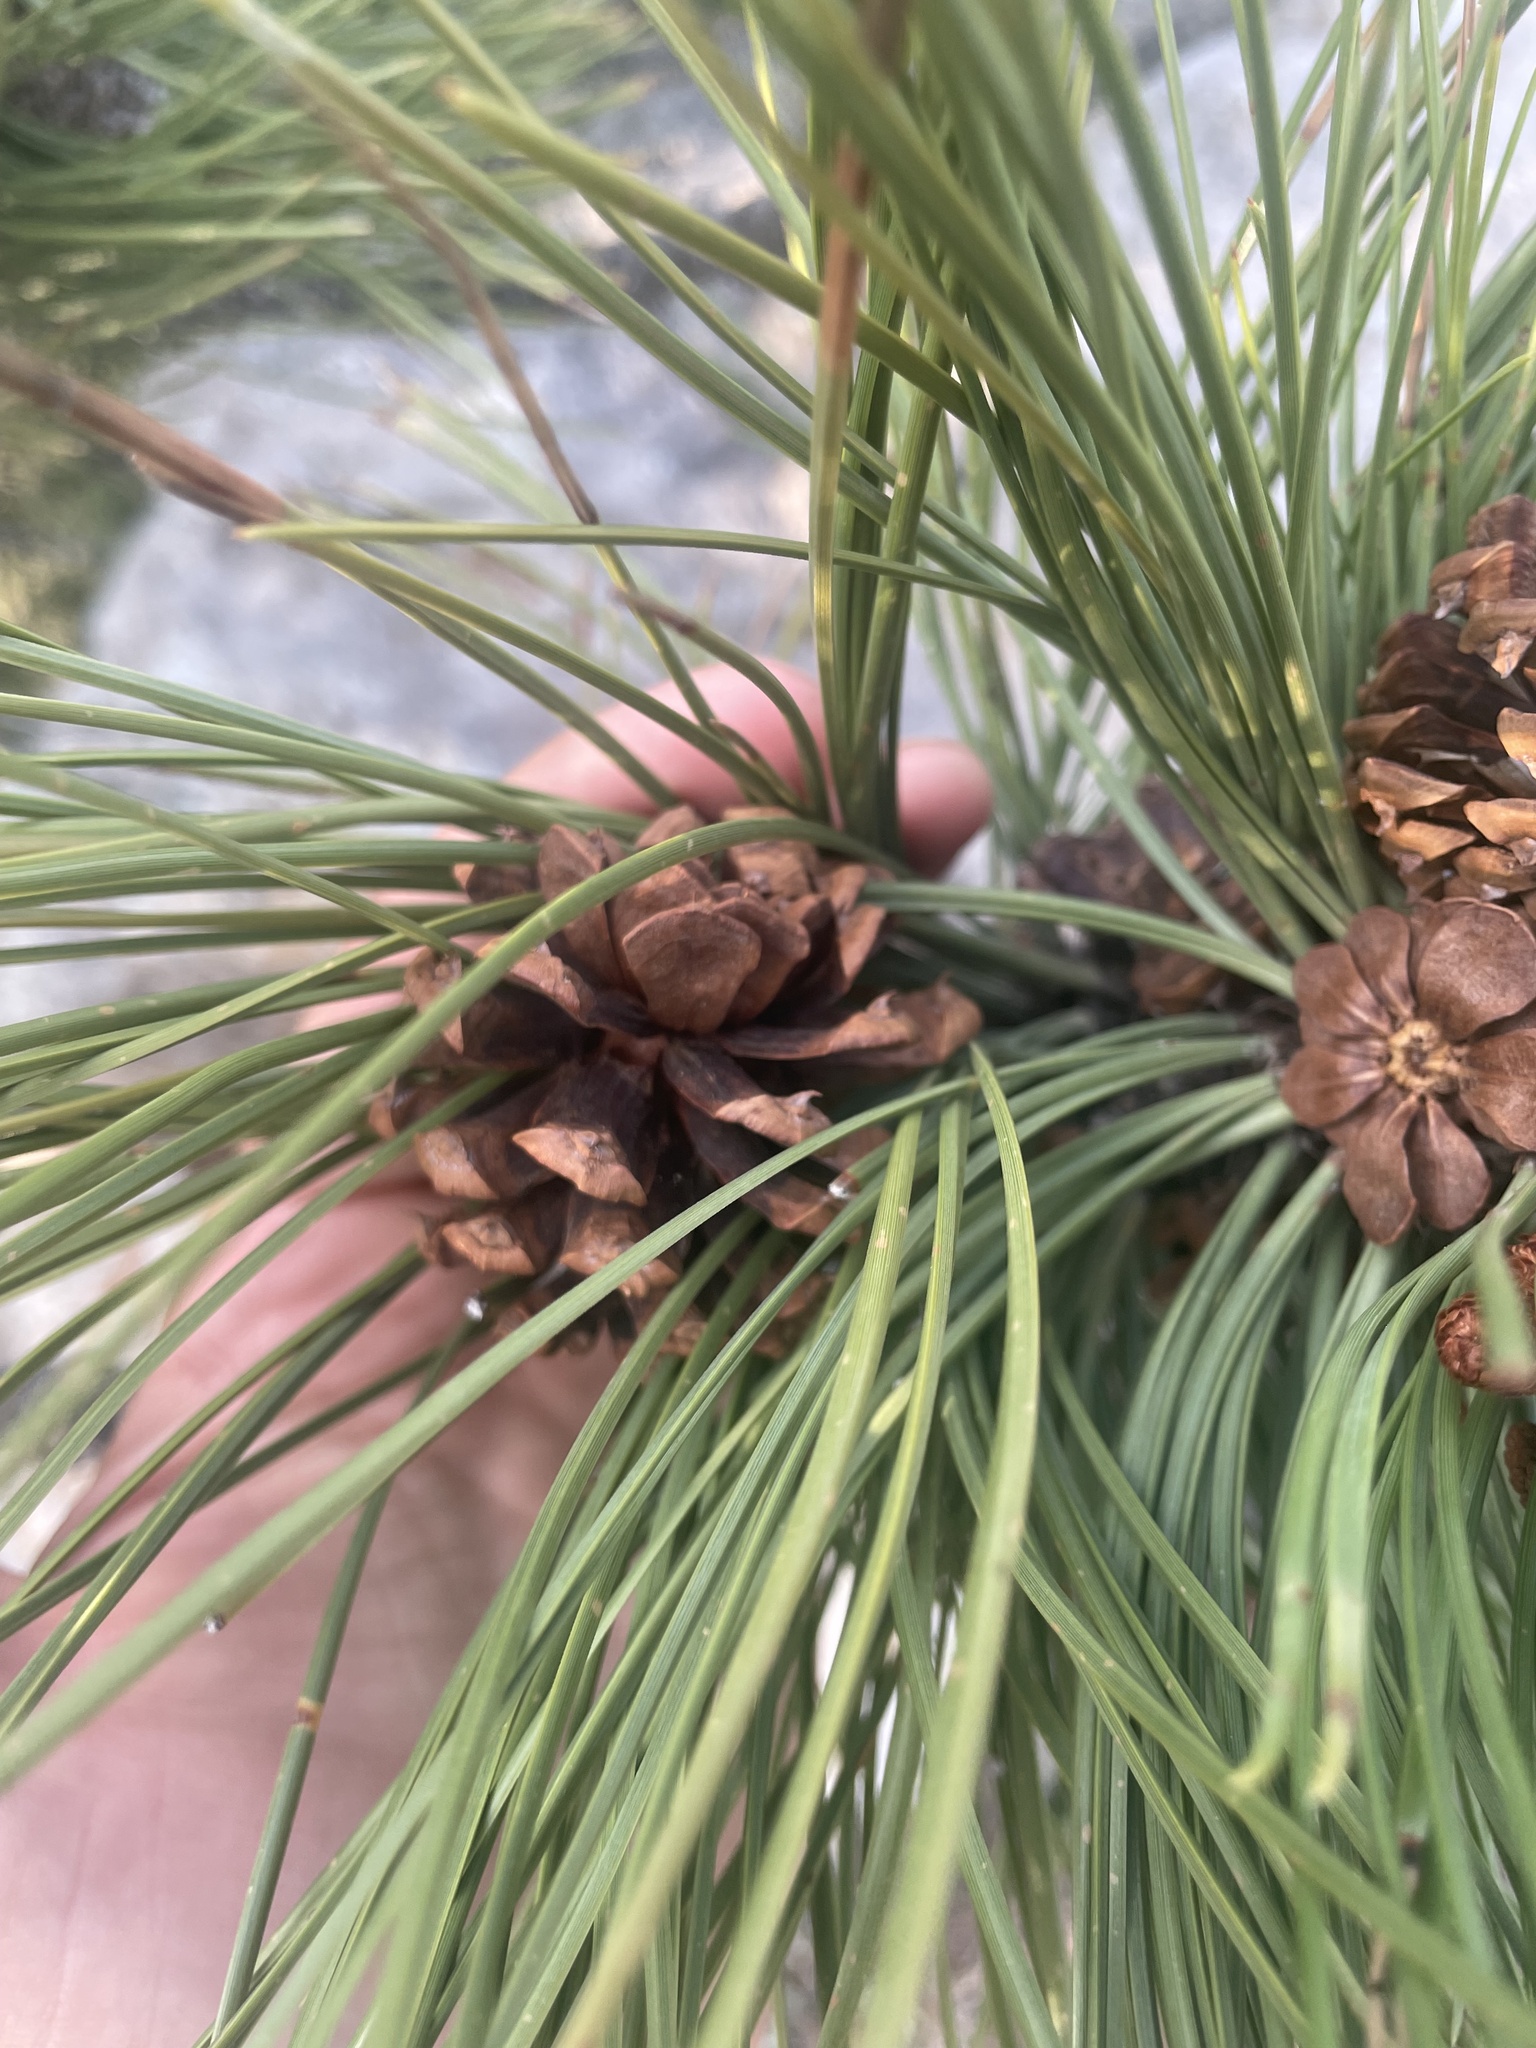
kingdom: Plantae
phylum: Tracheophyta
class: Pinopsida
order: Pinales
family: Pinaceae
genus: Pinus
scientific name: Pinus ponderosa
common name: Western yellow-pine
